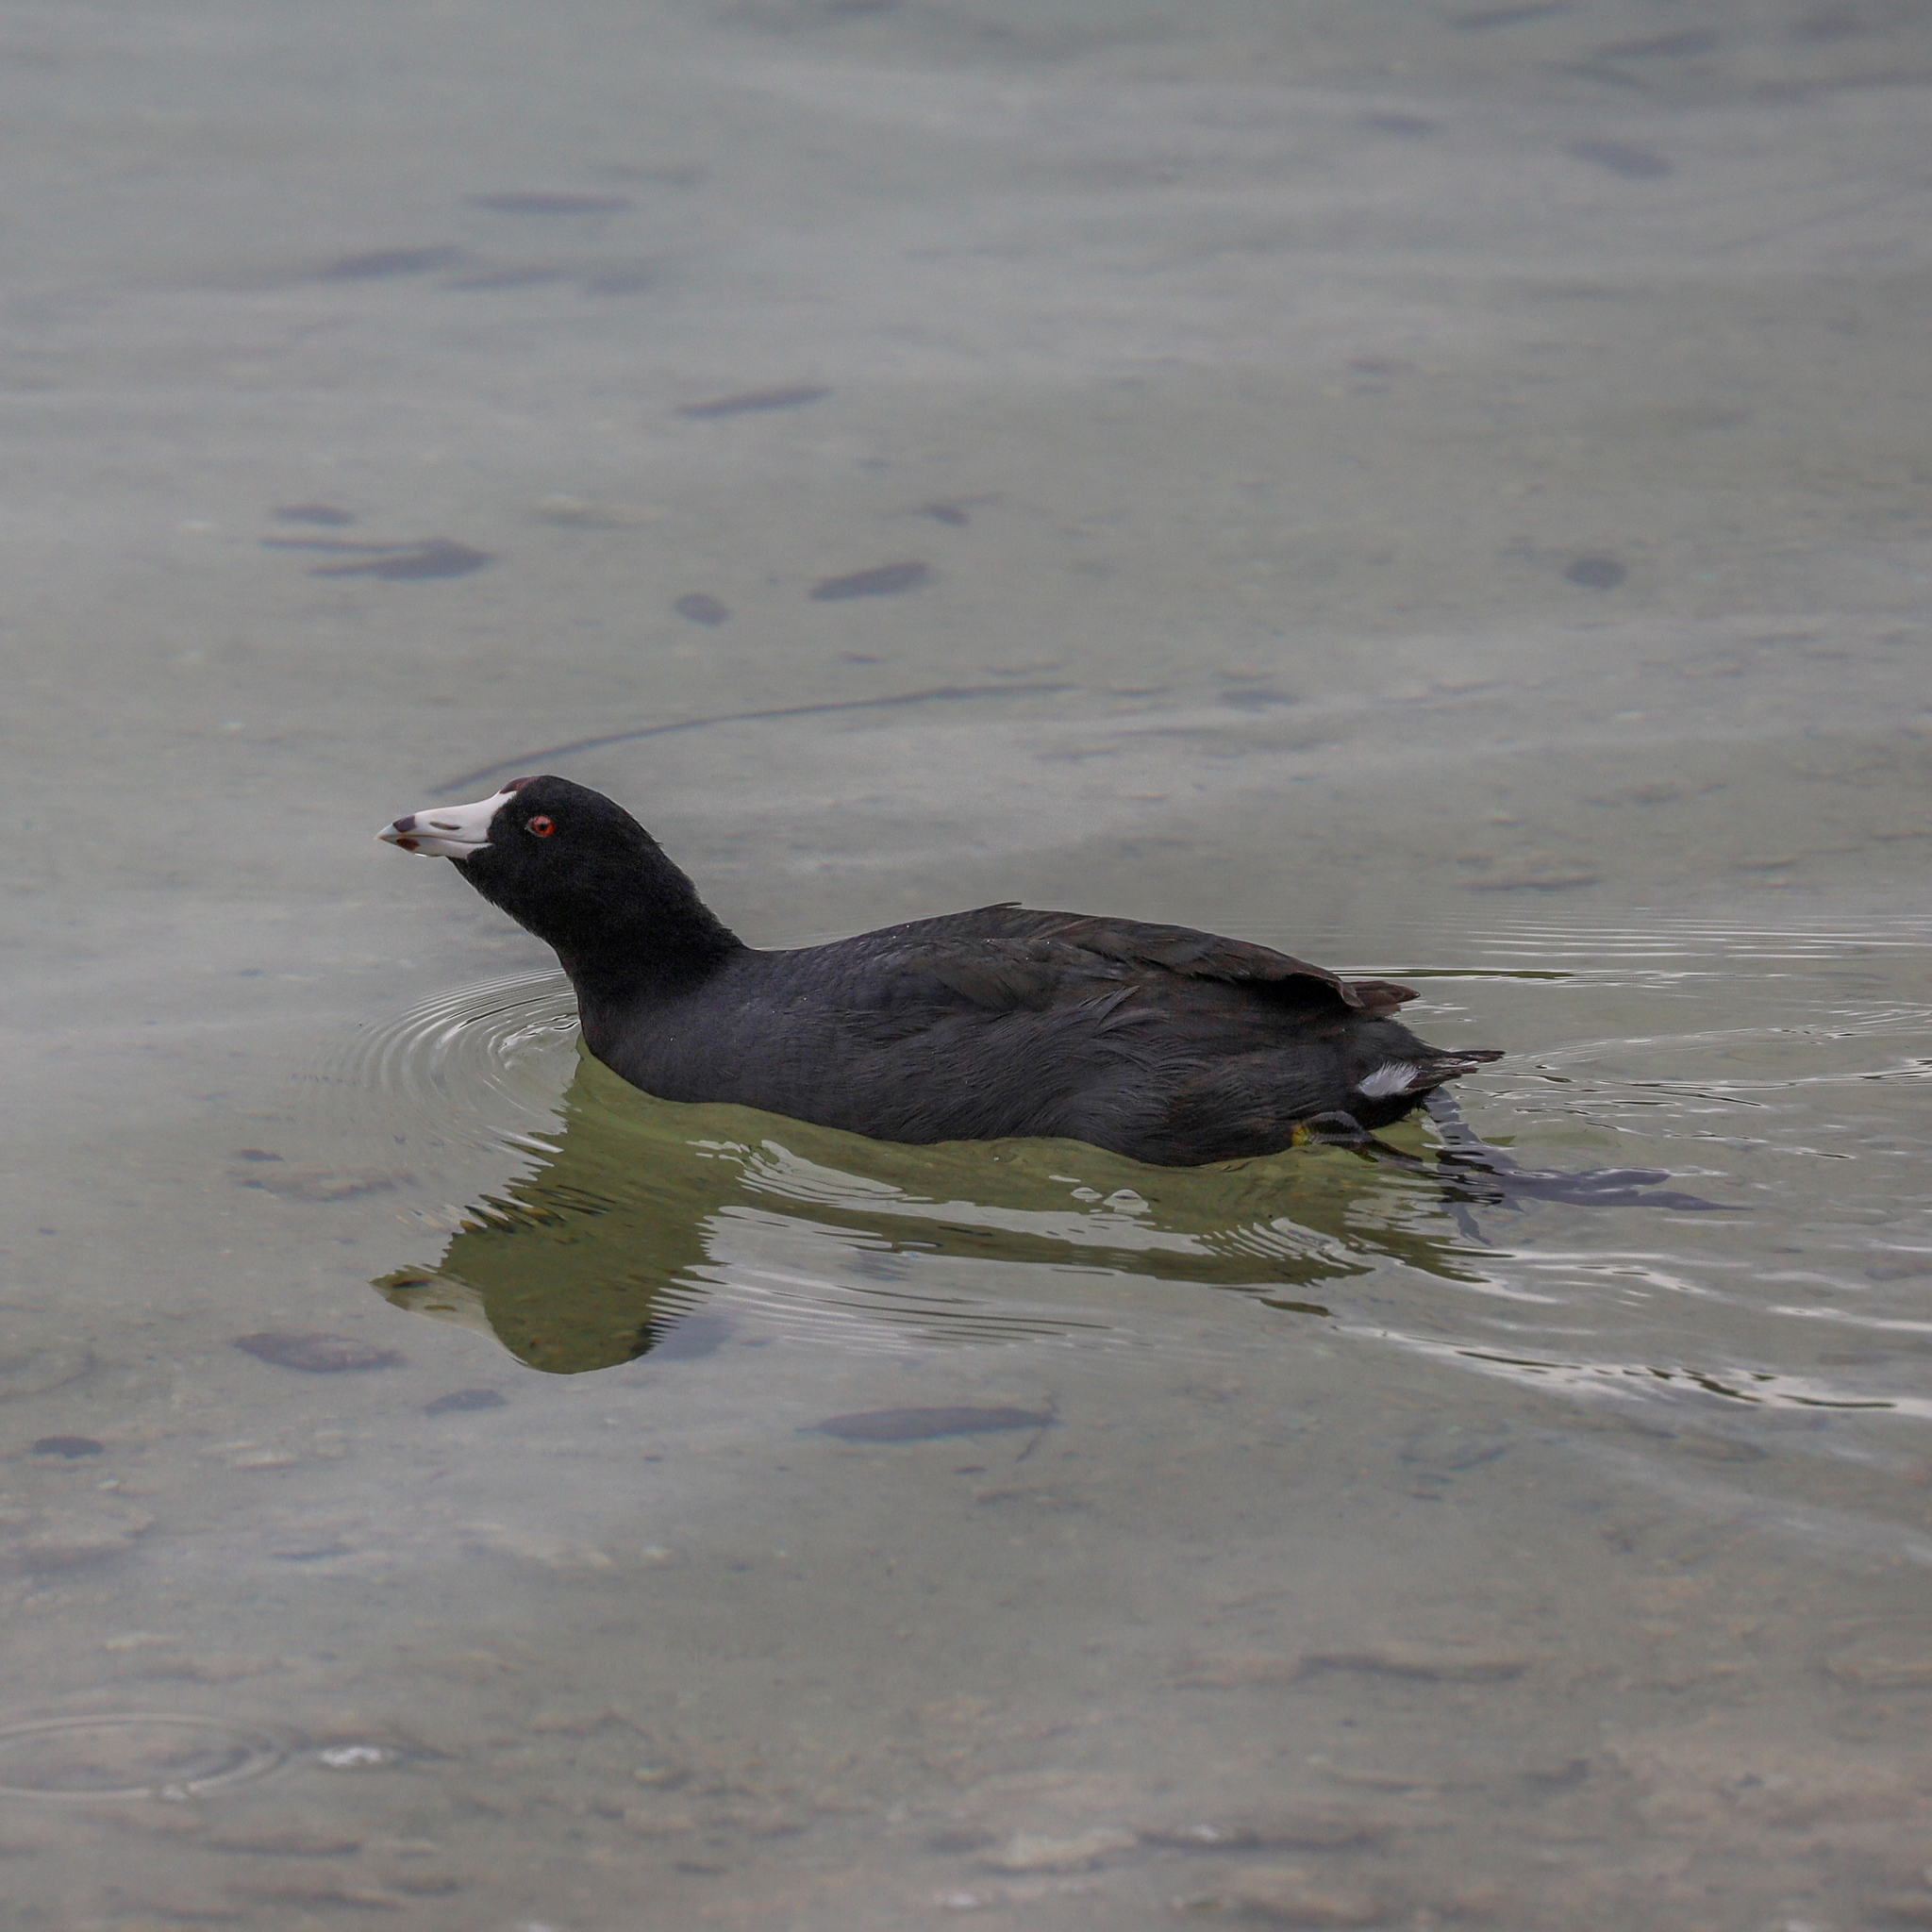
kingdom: Animalia
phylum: Chordata
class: Aves
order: Gruiformes
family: Rallidae
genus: Fulica
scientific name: Fulica americana
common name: American coot
